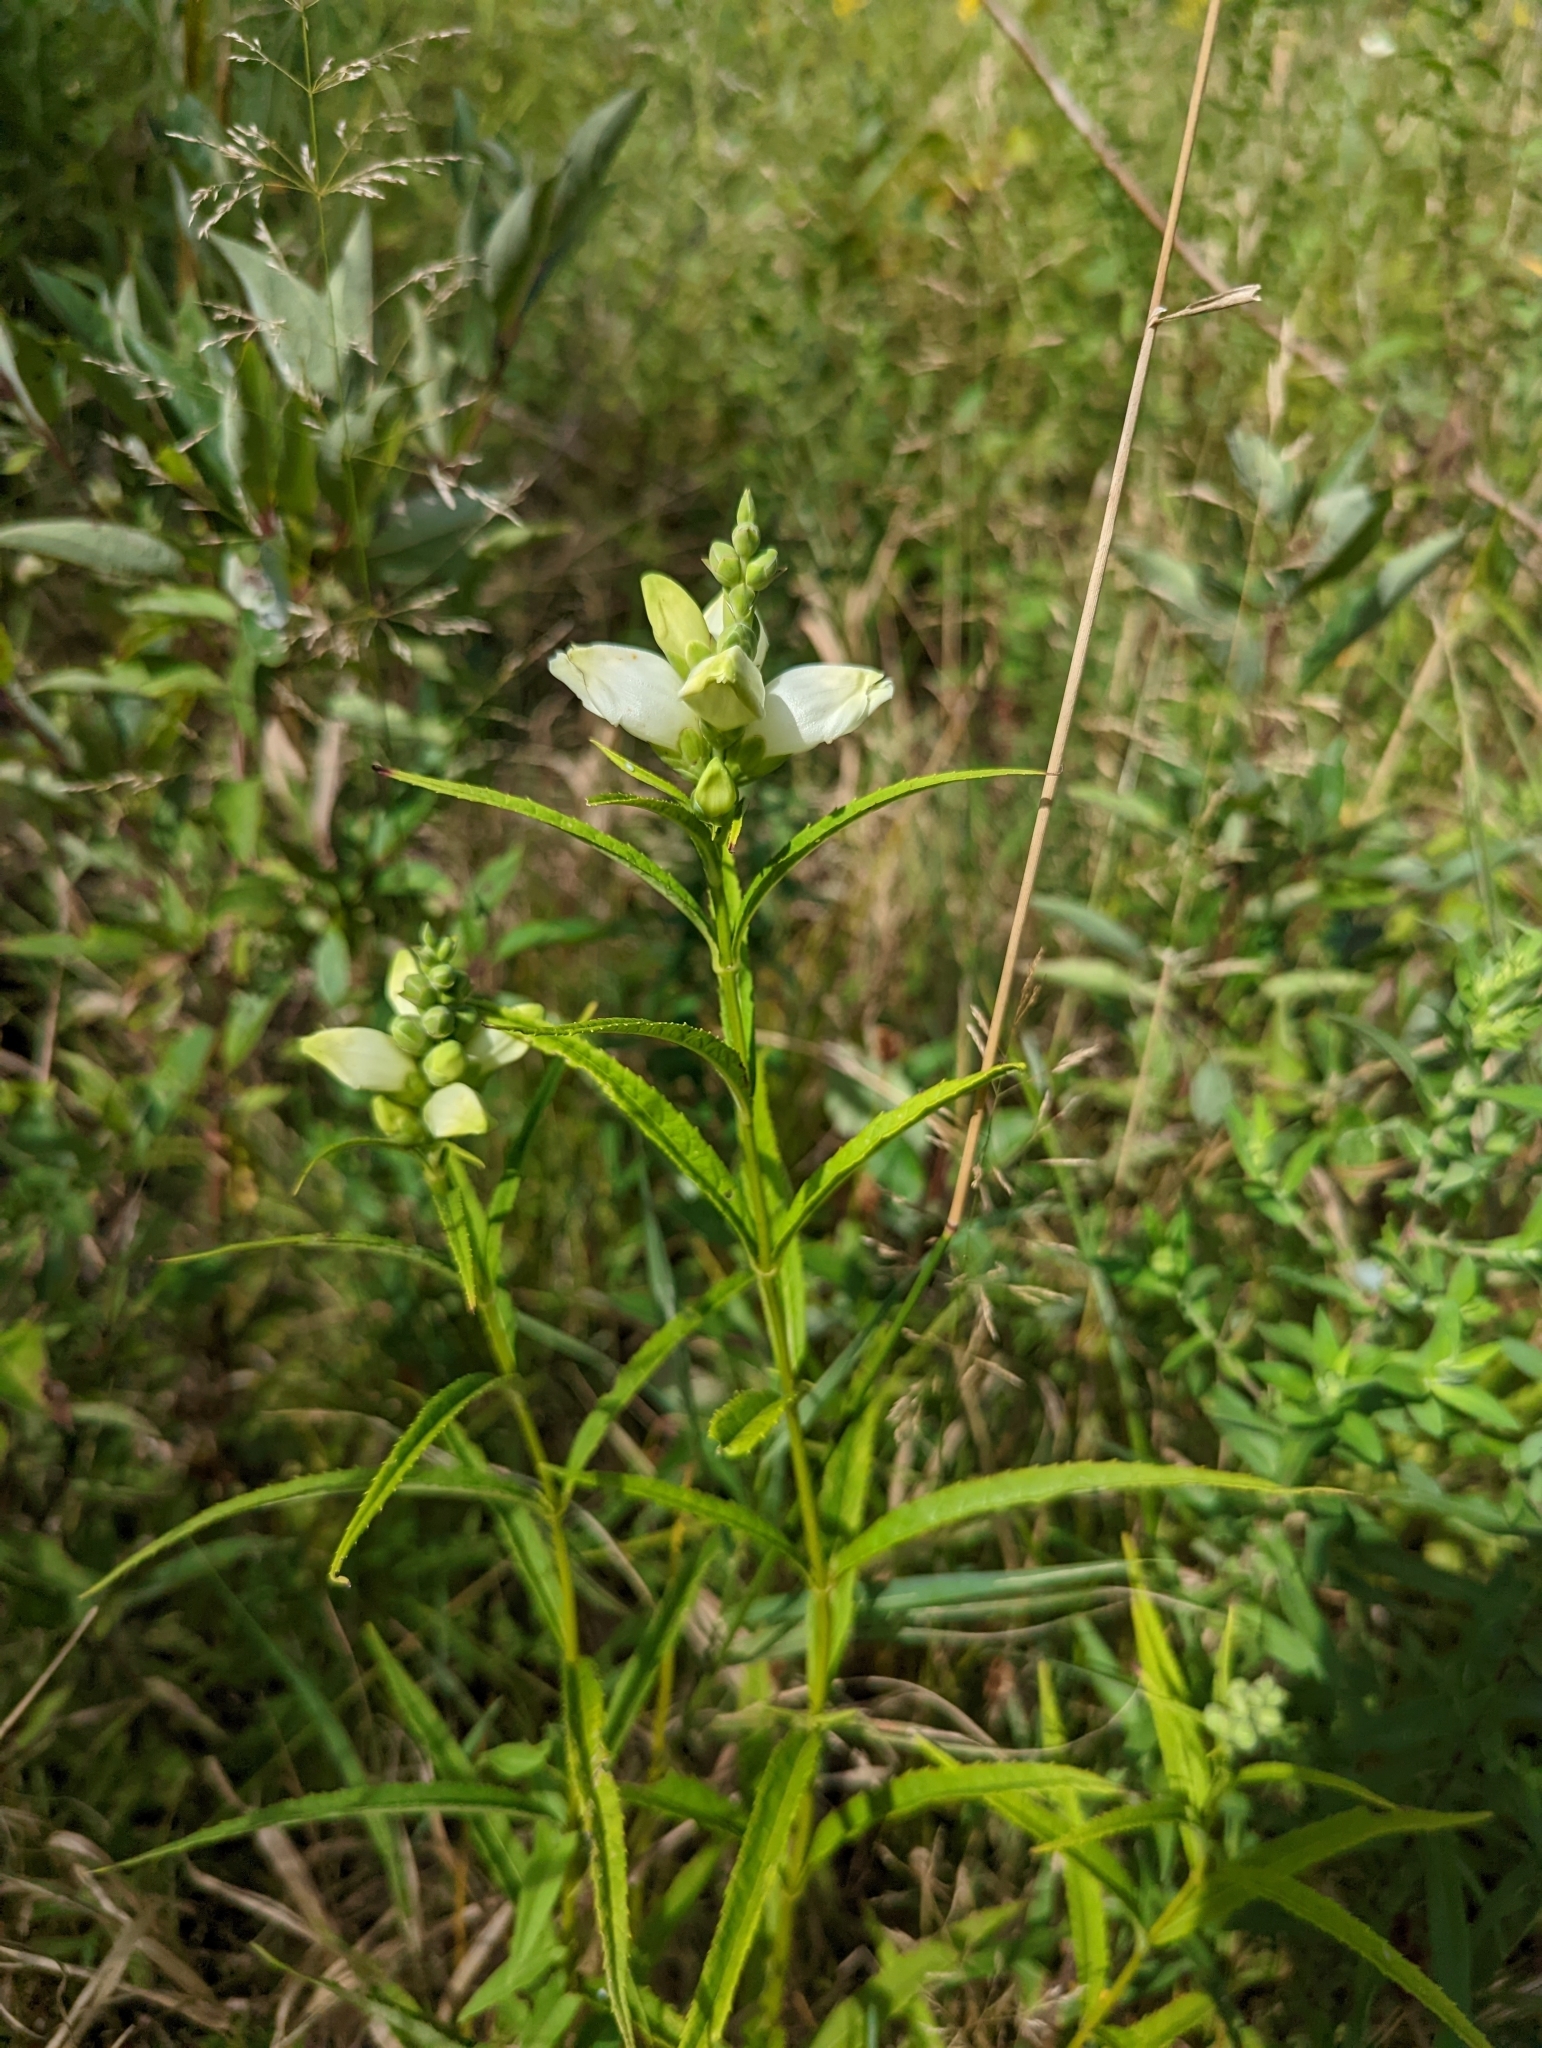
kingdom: Plantae
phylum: Tracheophyta
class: Magnoliopsida
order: Lamiales
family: Plantaginaceae
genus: Chelone
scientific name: Chelone glabra
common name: Snakehead
